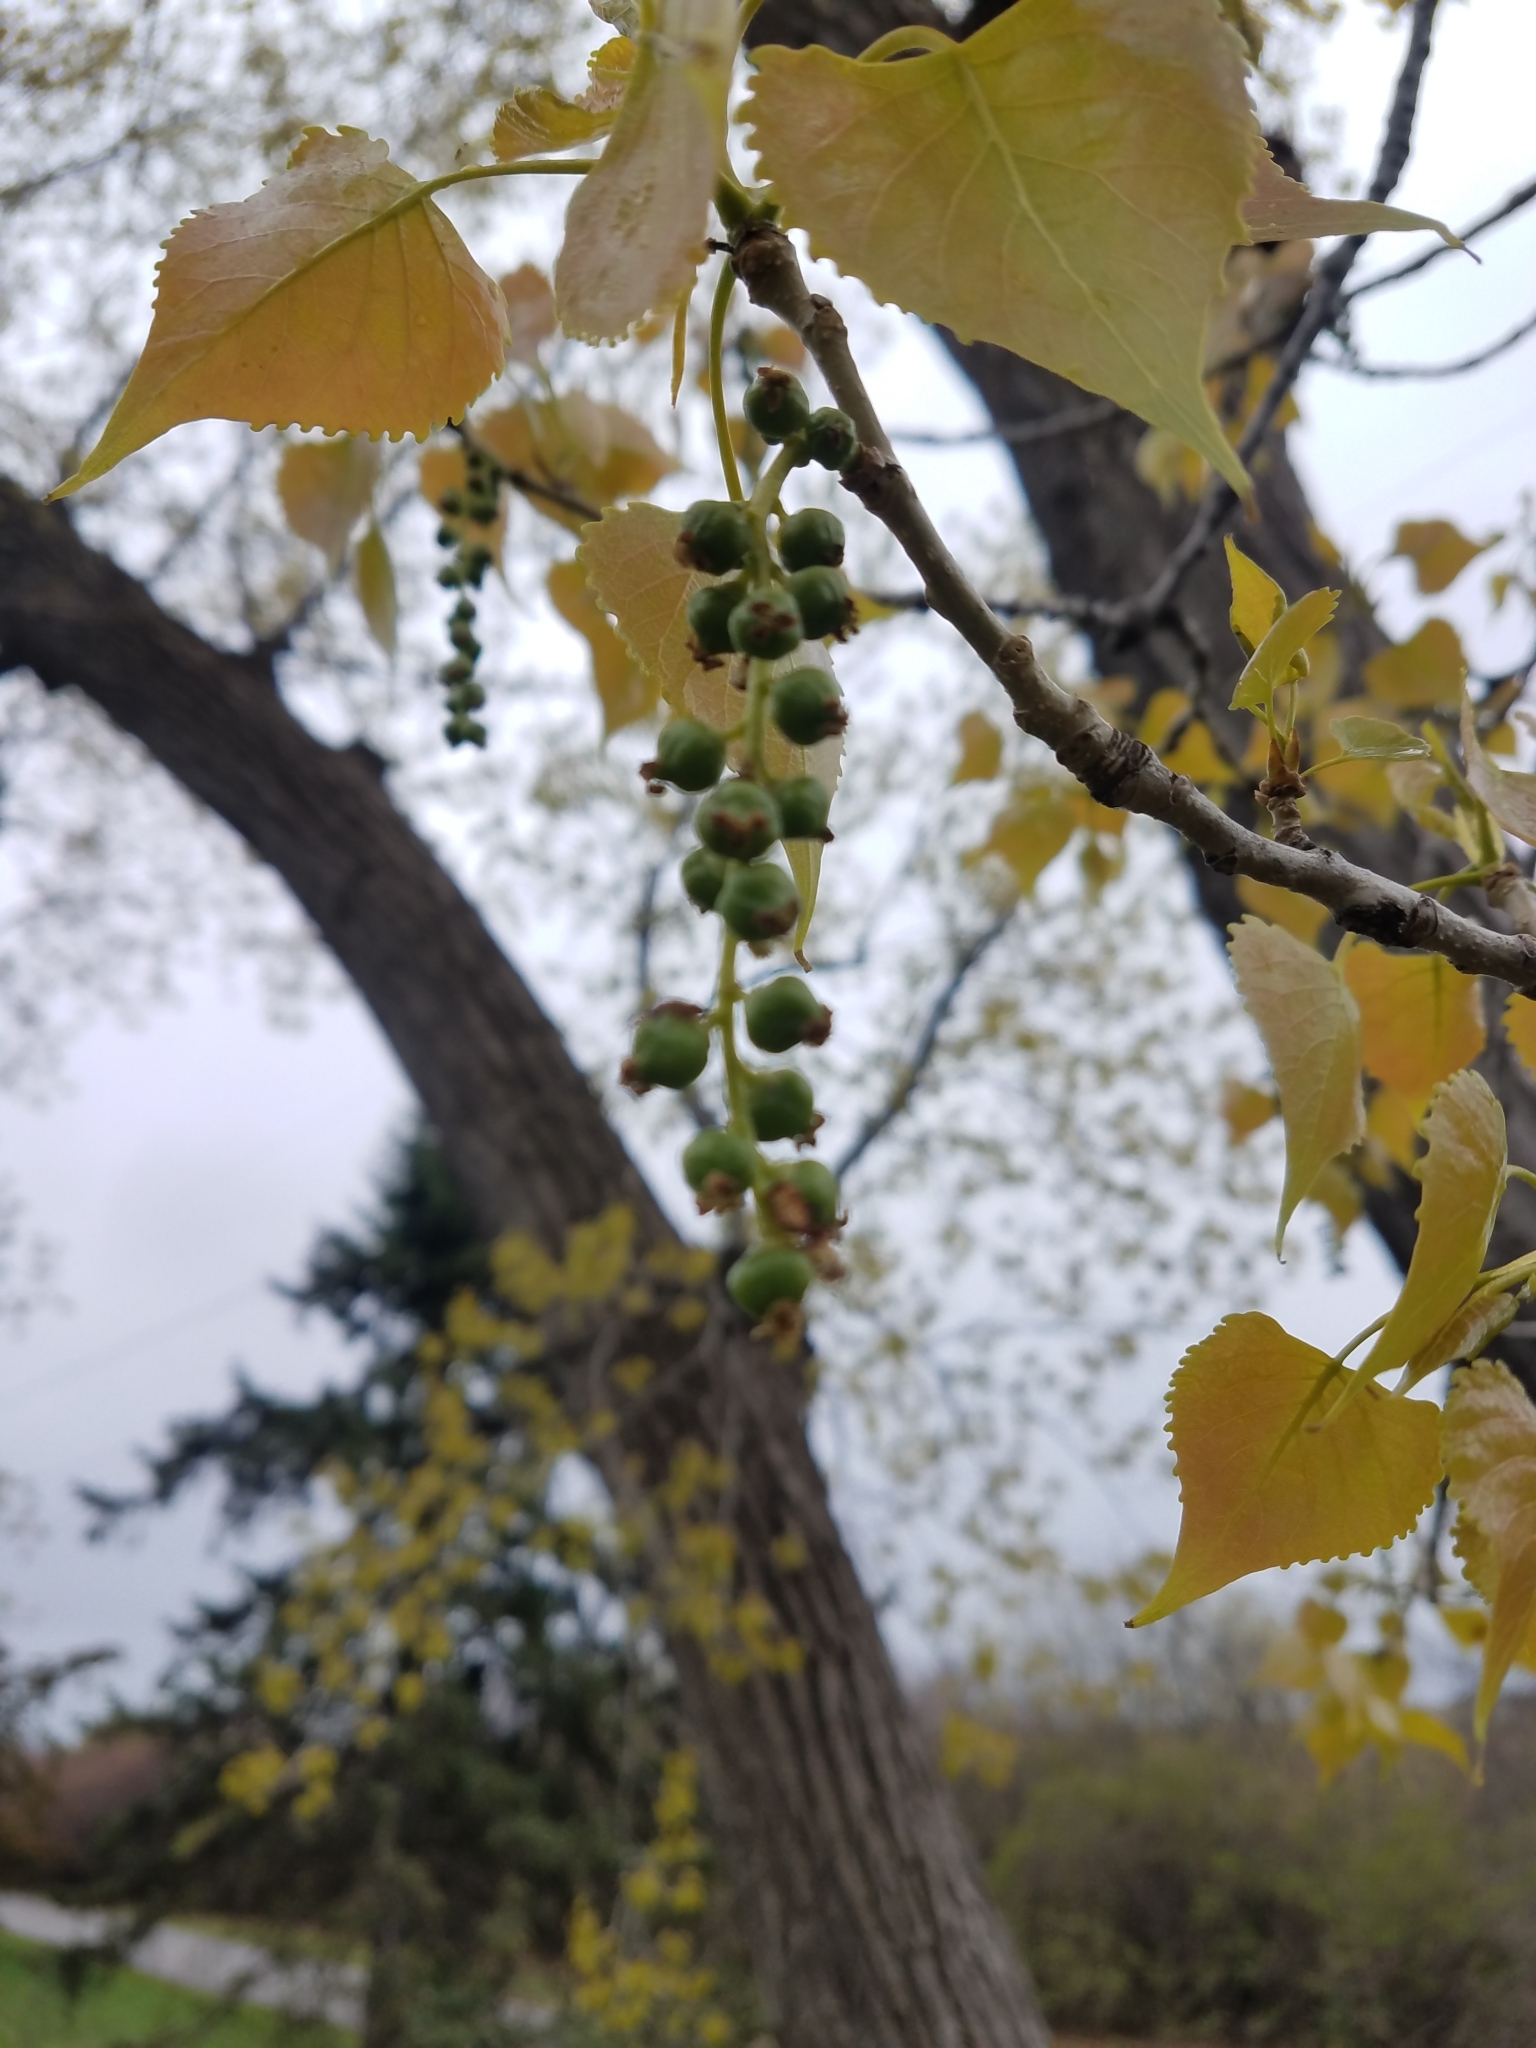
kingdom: Plantae
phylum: Tracheophyta
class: Magnoliopsida
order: Malpighiales
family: Salicaceae
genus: Populus
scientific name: Populus deltoides
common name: Eastern cottonwood
